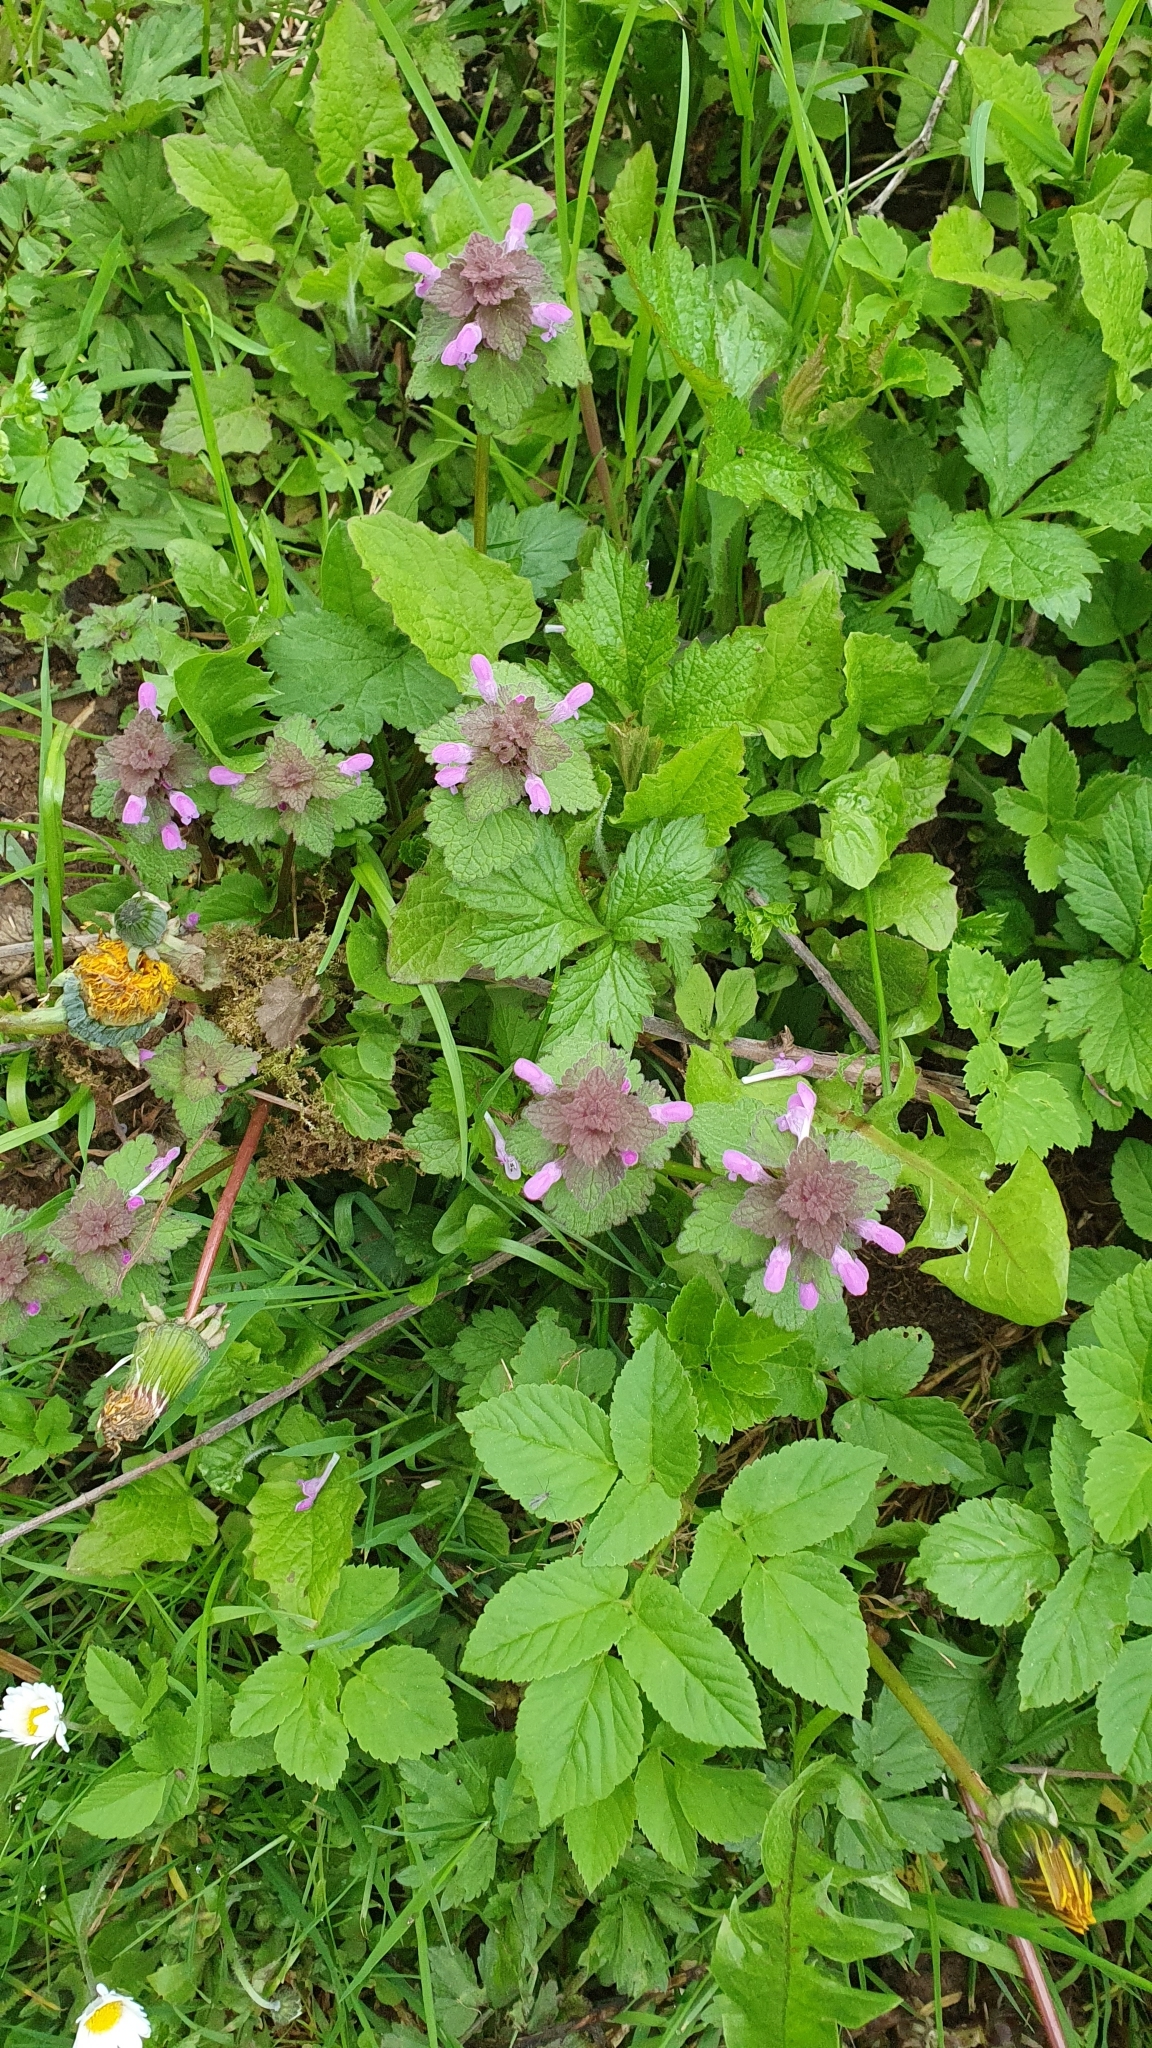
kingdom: Plantae
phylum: Tracheophyta
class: Magnoliopsida
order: Lamiales
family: Lamiaceae
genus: Lamium
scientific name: Lamium purpureum
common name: Red dead-nettle
